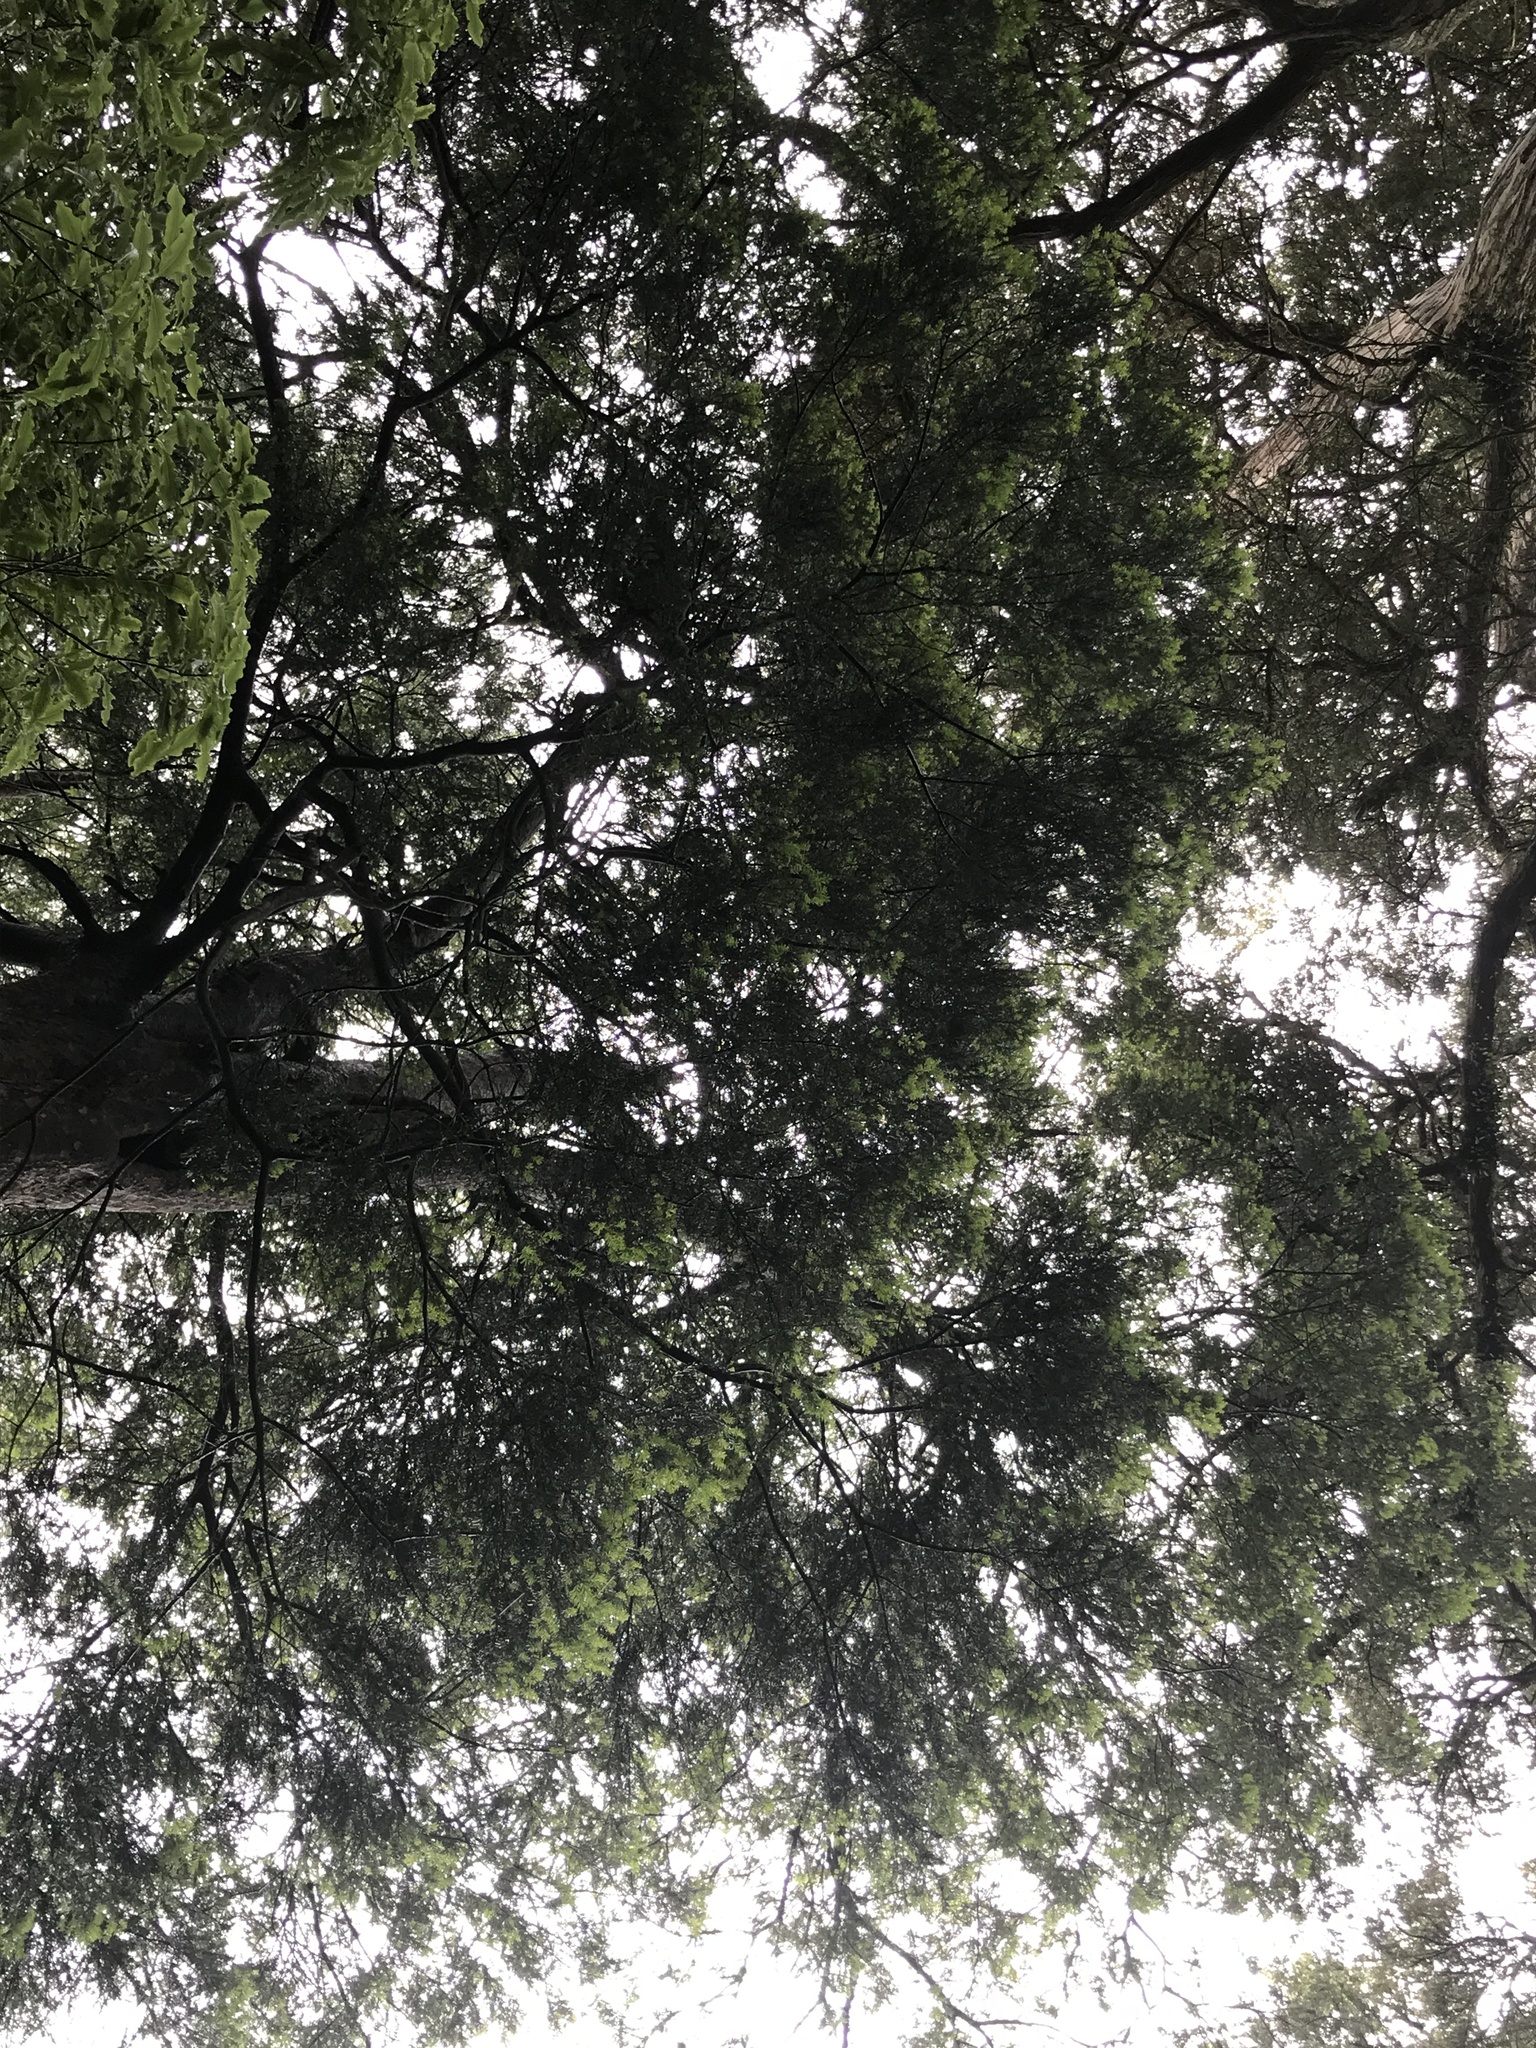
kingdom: Plantae
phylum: Tracheophyta
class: Pinopsida
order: Pinales
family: Podocarpaceae
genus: Prumnopitys
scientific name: Prumnopitys taxifolia
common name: Matai
